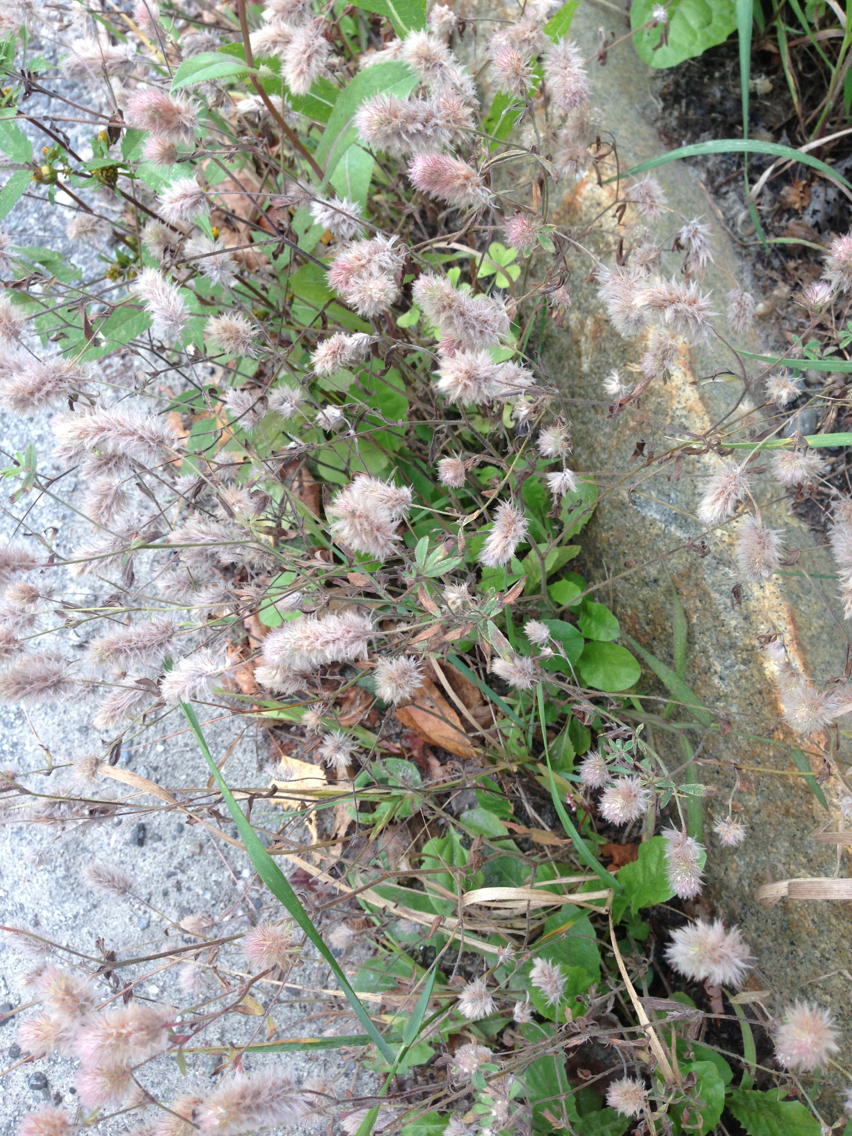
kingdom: Plantae
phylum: Tracheophyta
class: Magnoliopsida
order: Fabales
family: Fabaceae
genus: Trifolium
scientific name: Trifolium arvense
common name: Hare's-foot clover
